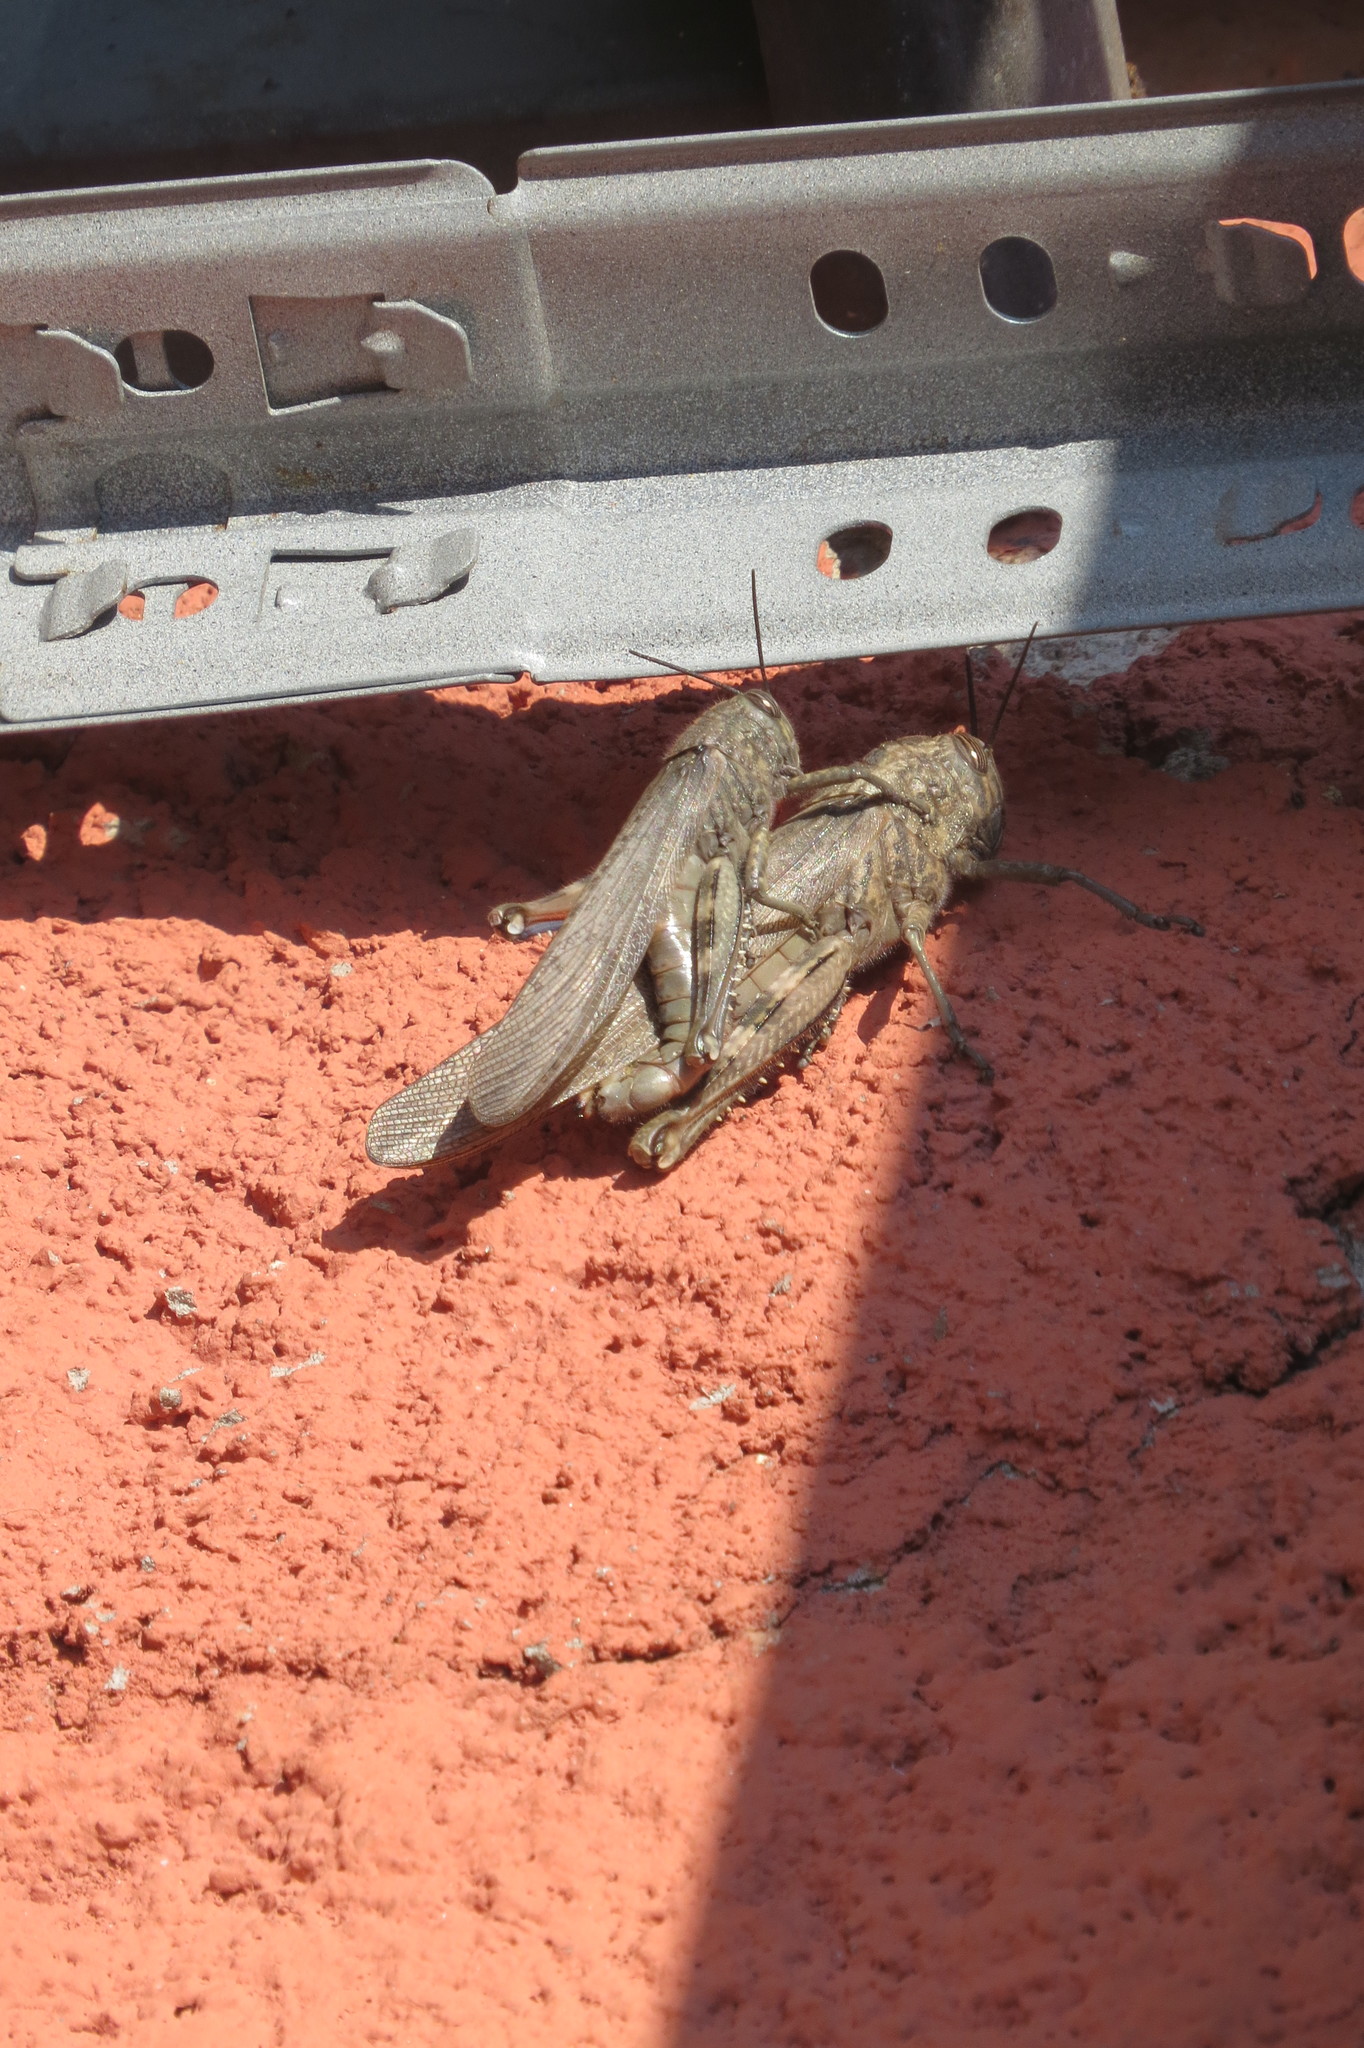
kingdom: Animalia
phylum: Arthropoda
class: Insecta
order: Orthoptera
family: Acrididae
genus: Anacridium
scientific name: Anacridium aegyptium
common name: Egyptian grasshopper
